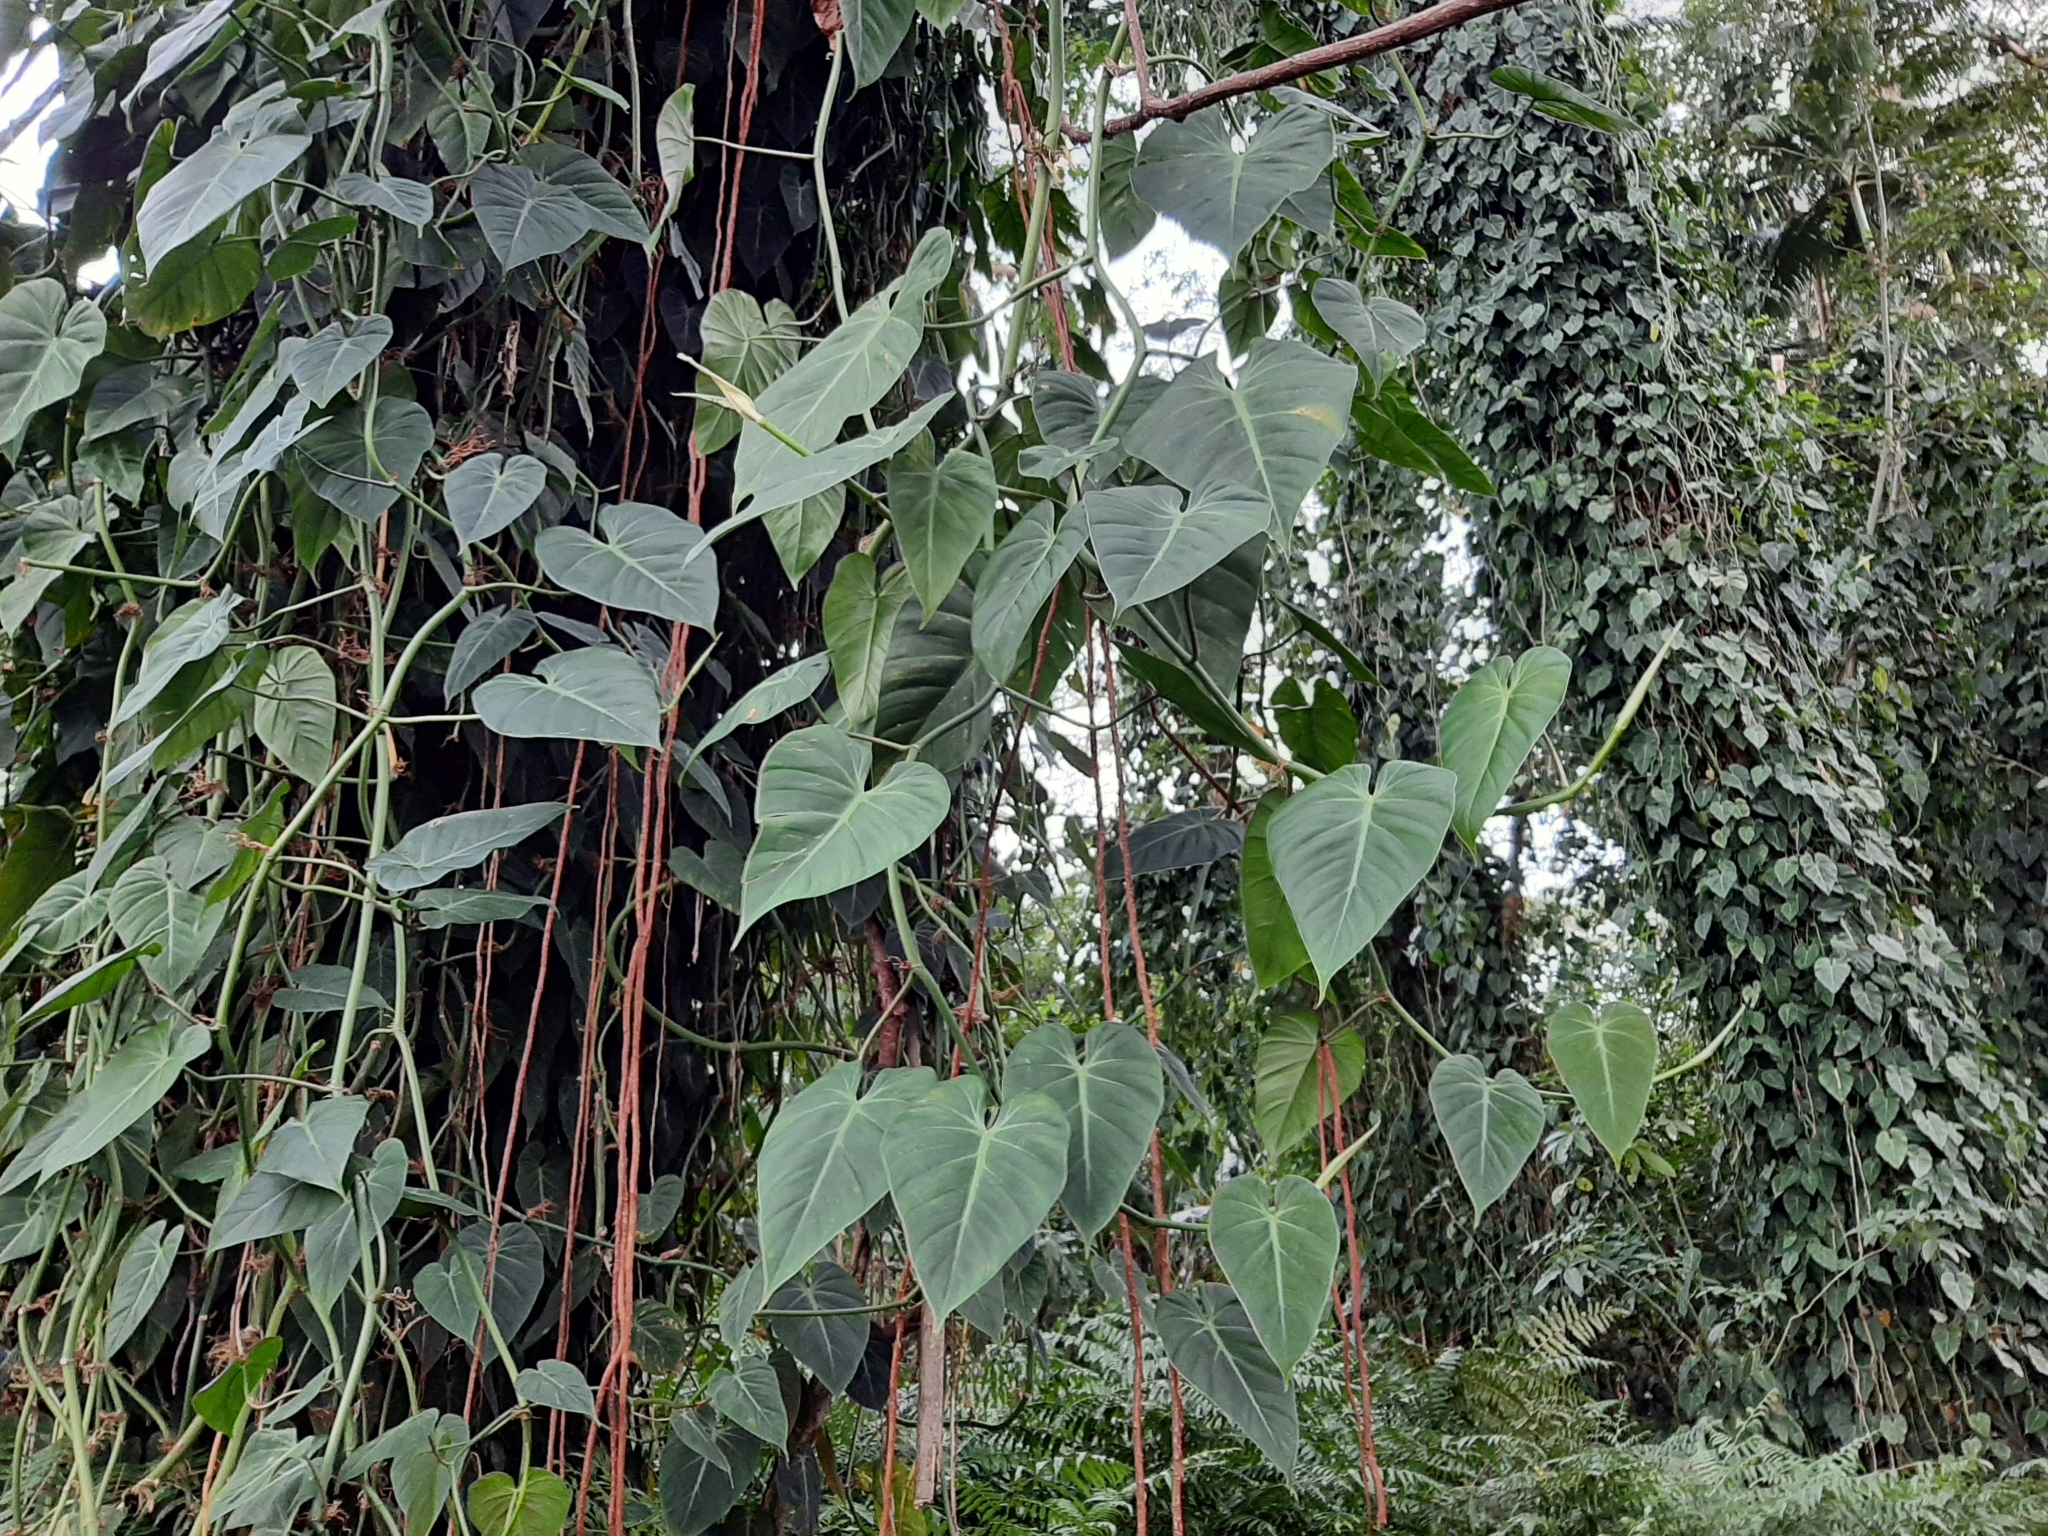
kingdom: Plantae
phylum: Tracheophyta
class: Liliopsida
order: Alismatales
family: Araceae
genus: Philodendron
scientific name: Philodendron hederaceum
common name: Vilevine
